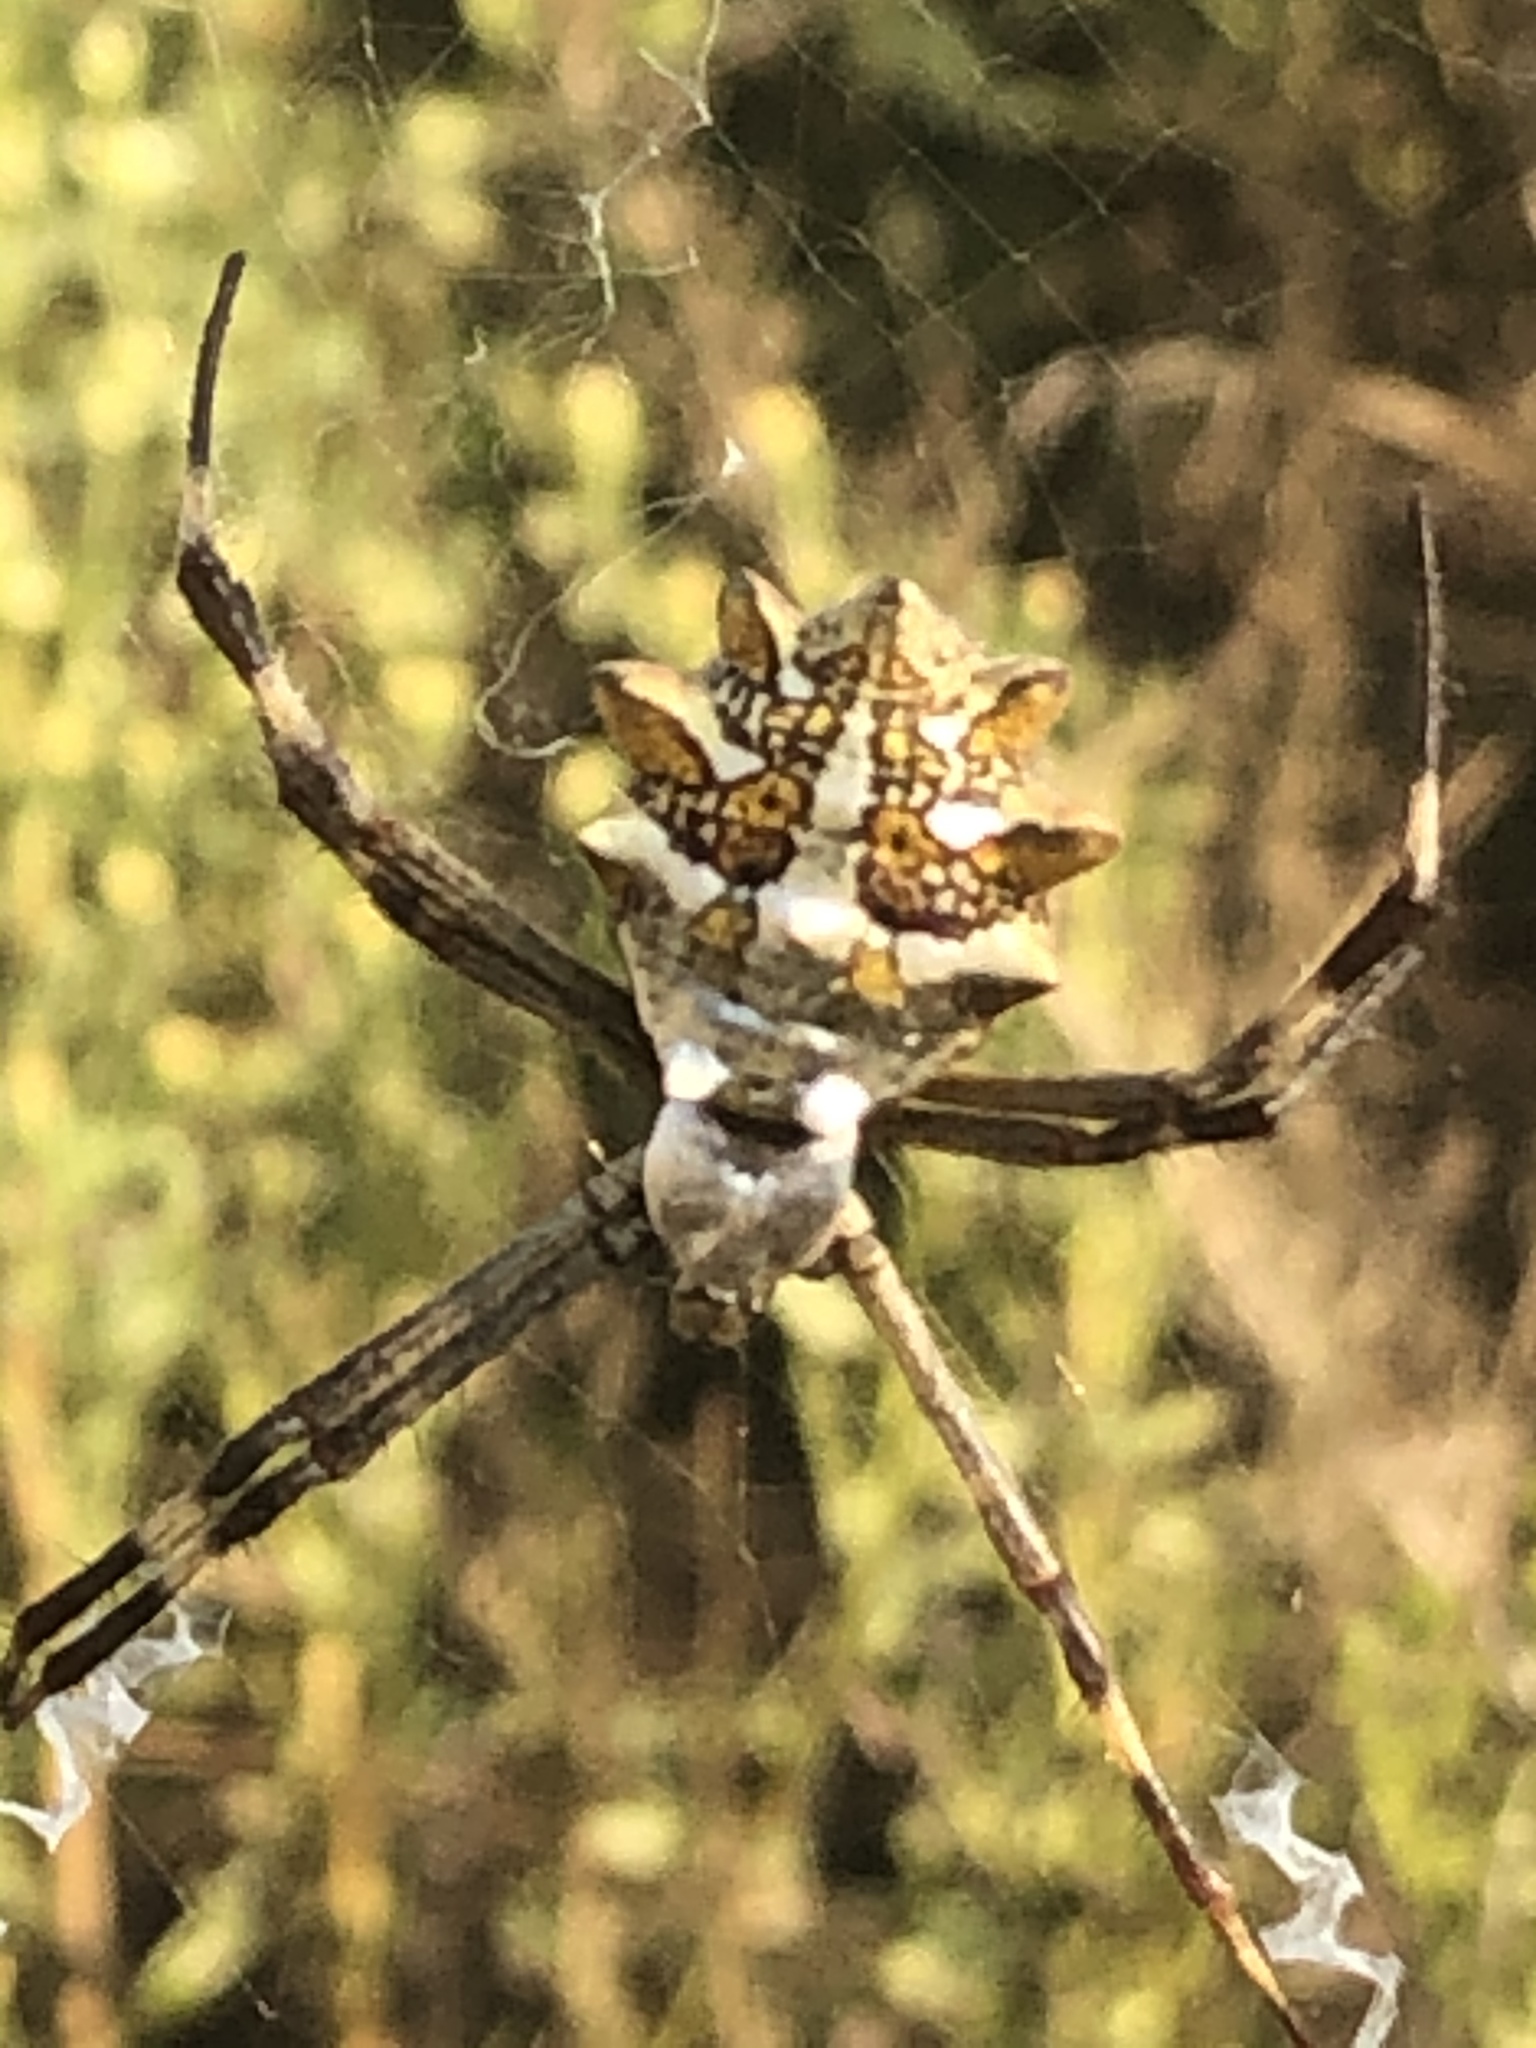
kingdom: Animalia
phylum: Arthropoda
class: Arachnida
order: Araneae
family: Araneidae
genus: Argiope
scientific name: Argiope argentata
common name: Orb weavers
